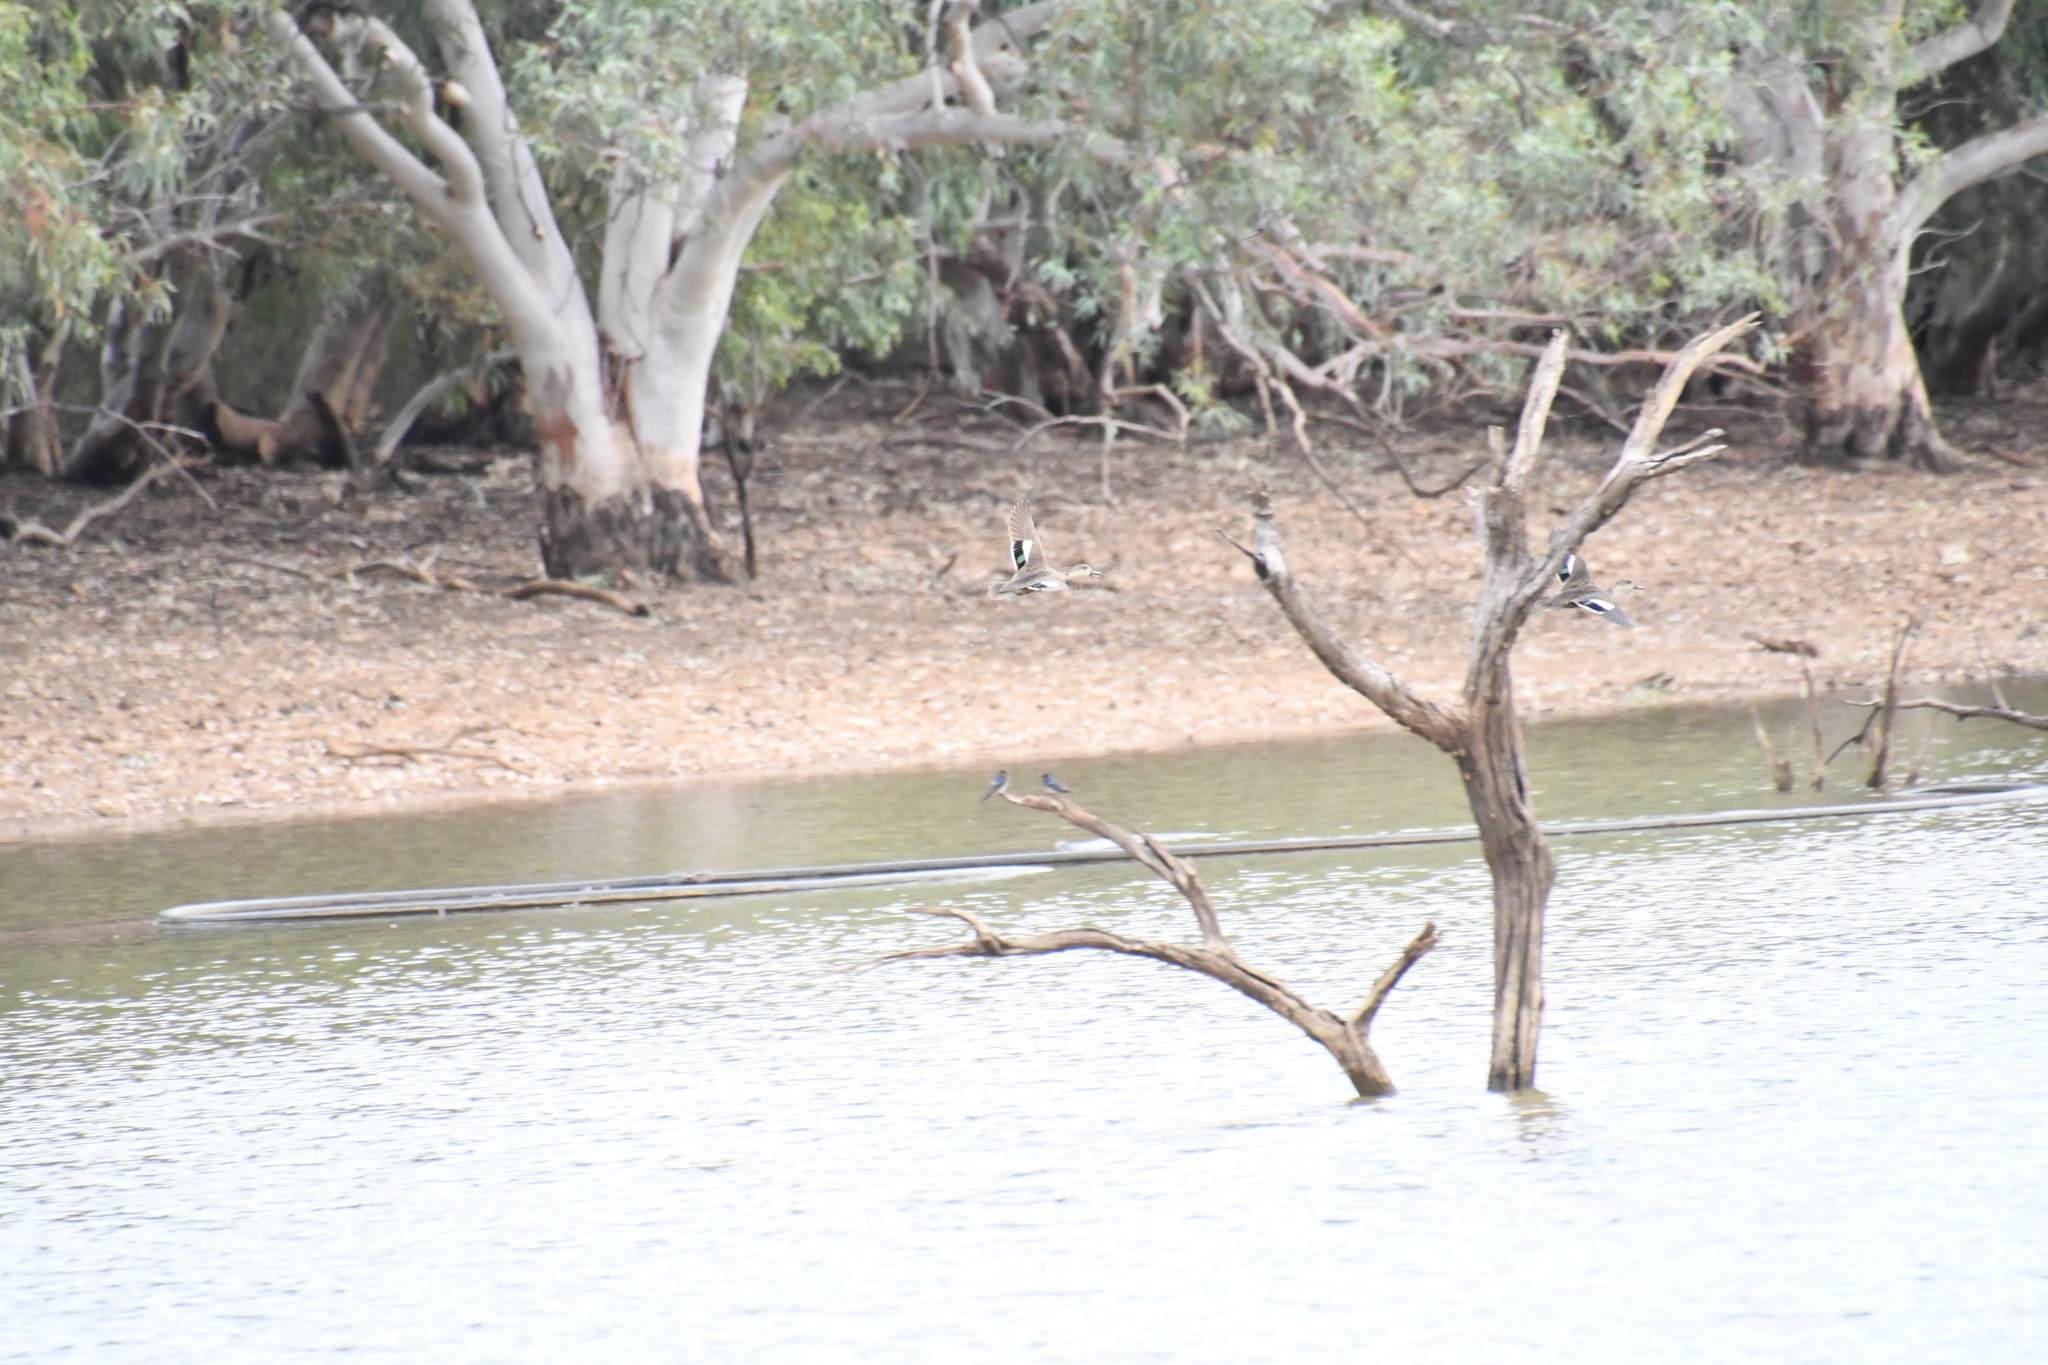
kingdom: Animalia
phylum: Chordata
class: Aves
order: Anseriformes
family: Anatidae
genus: Anas
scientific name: Anas gracilis
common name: Grey teal
